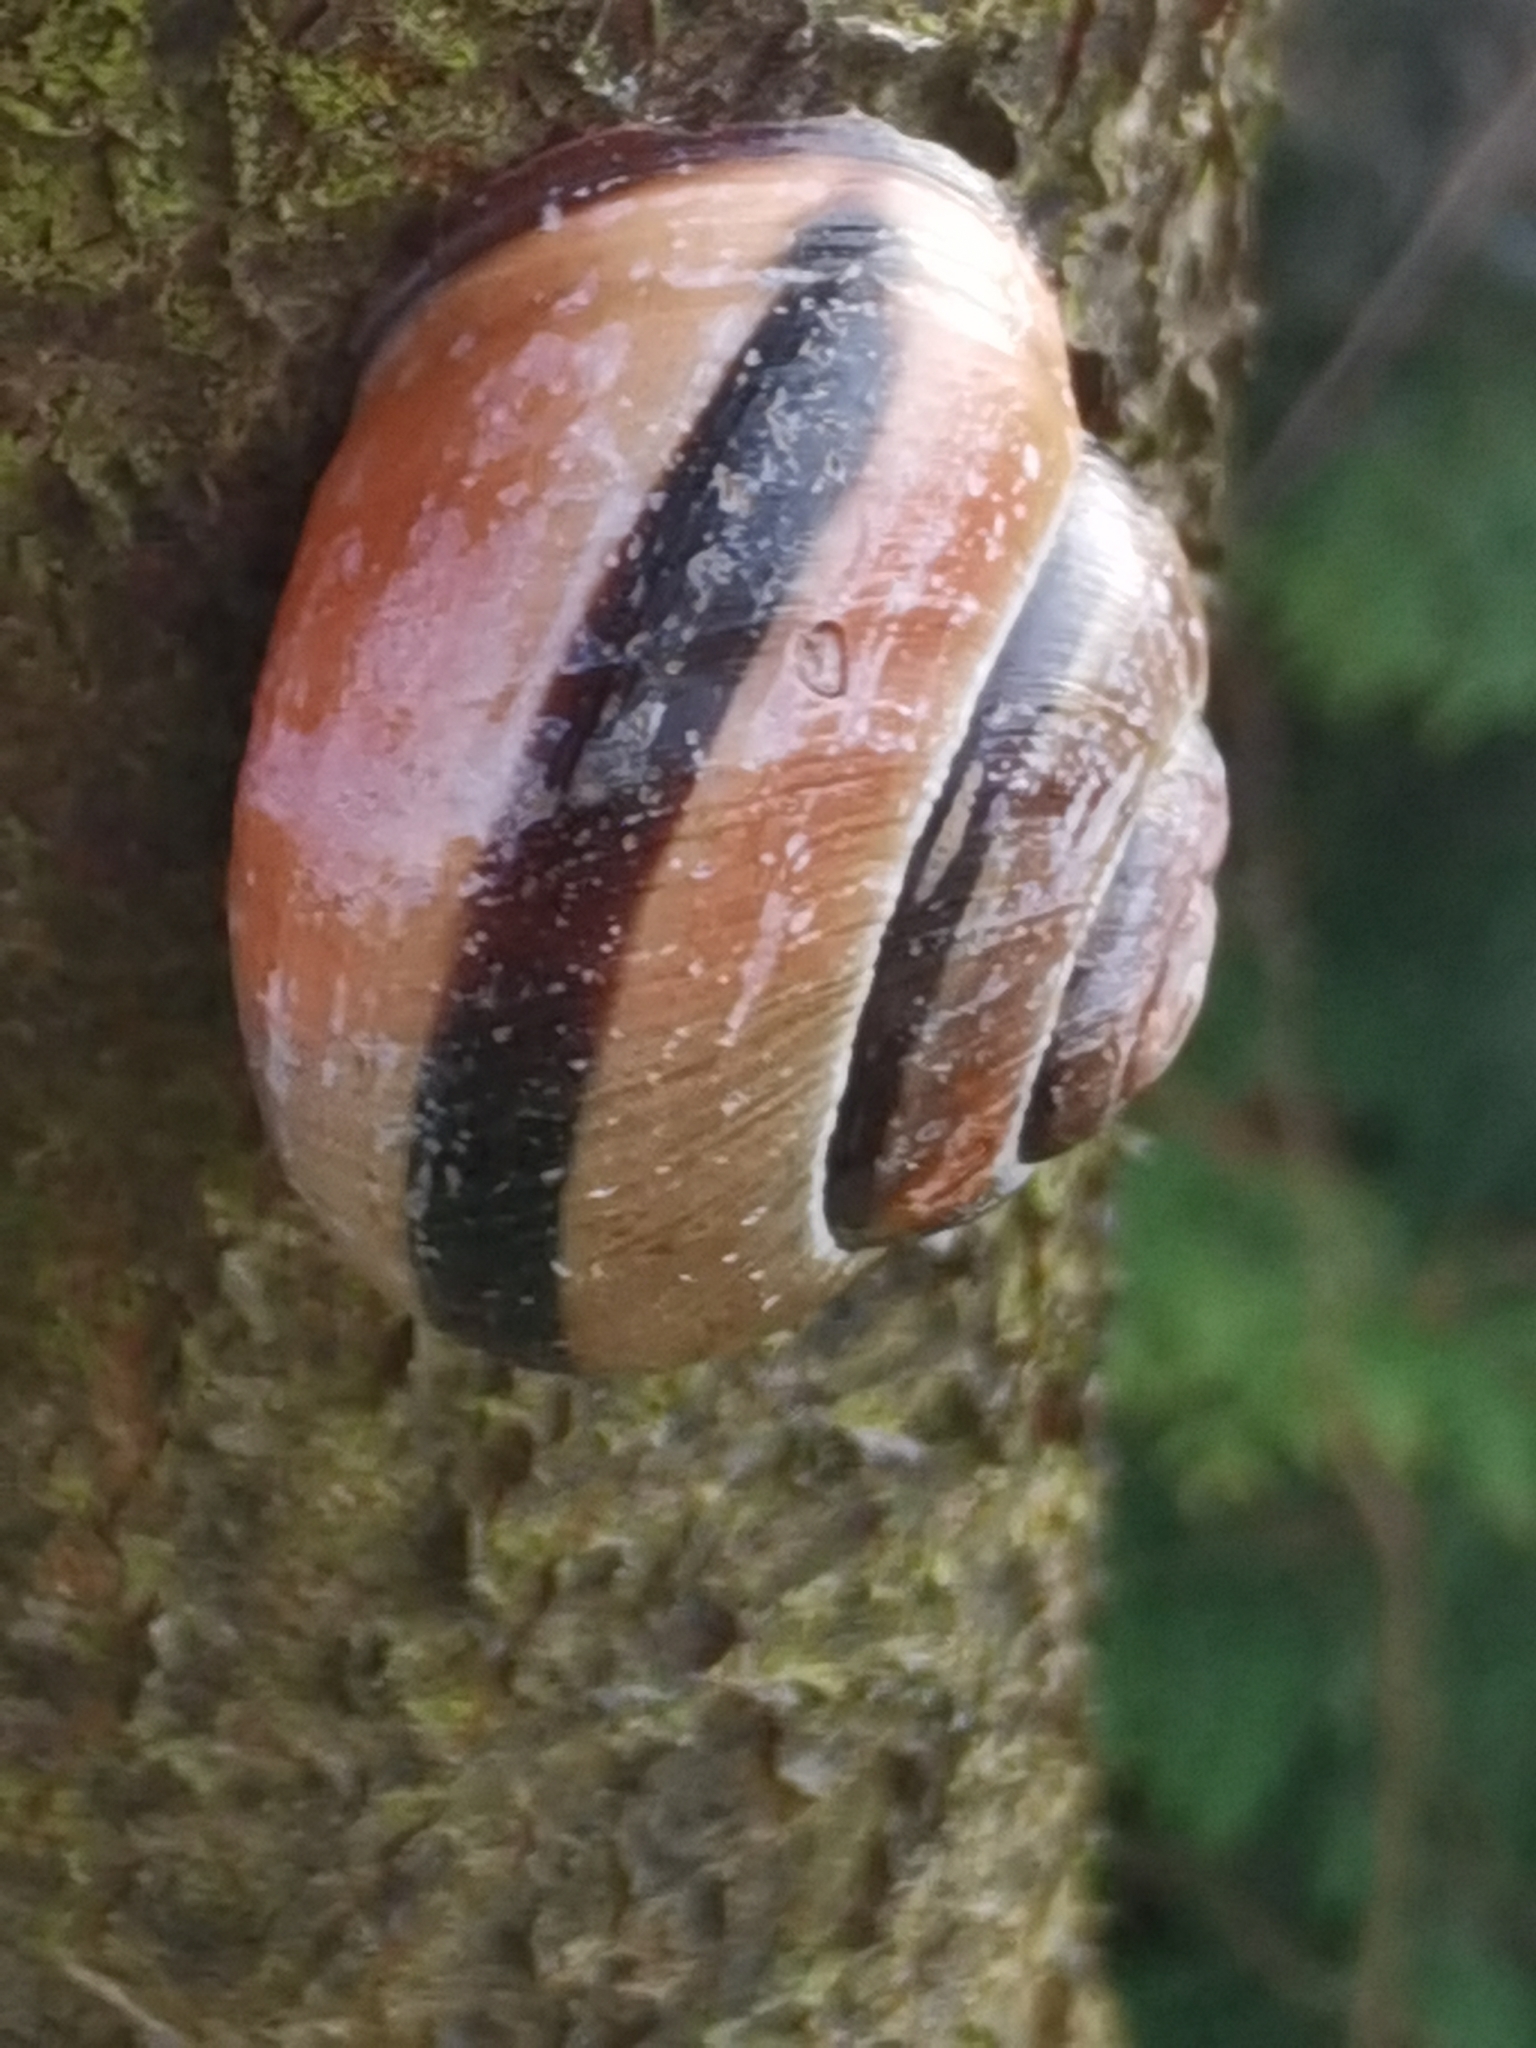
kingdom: Animalia
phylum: Mollusca
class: Gastropoda
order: Stylommatophora
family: Helicidae
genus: Cepaea
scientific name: Cepaea nemoralis
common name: Grovesnail
